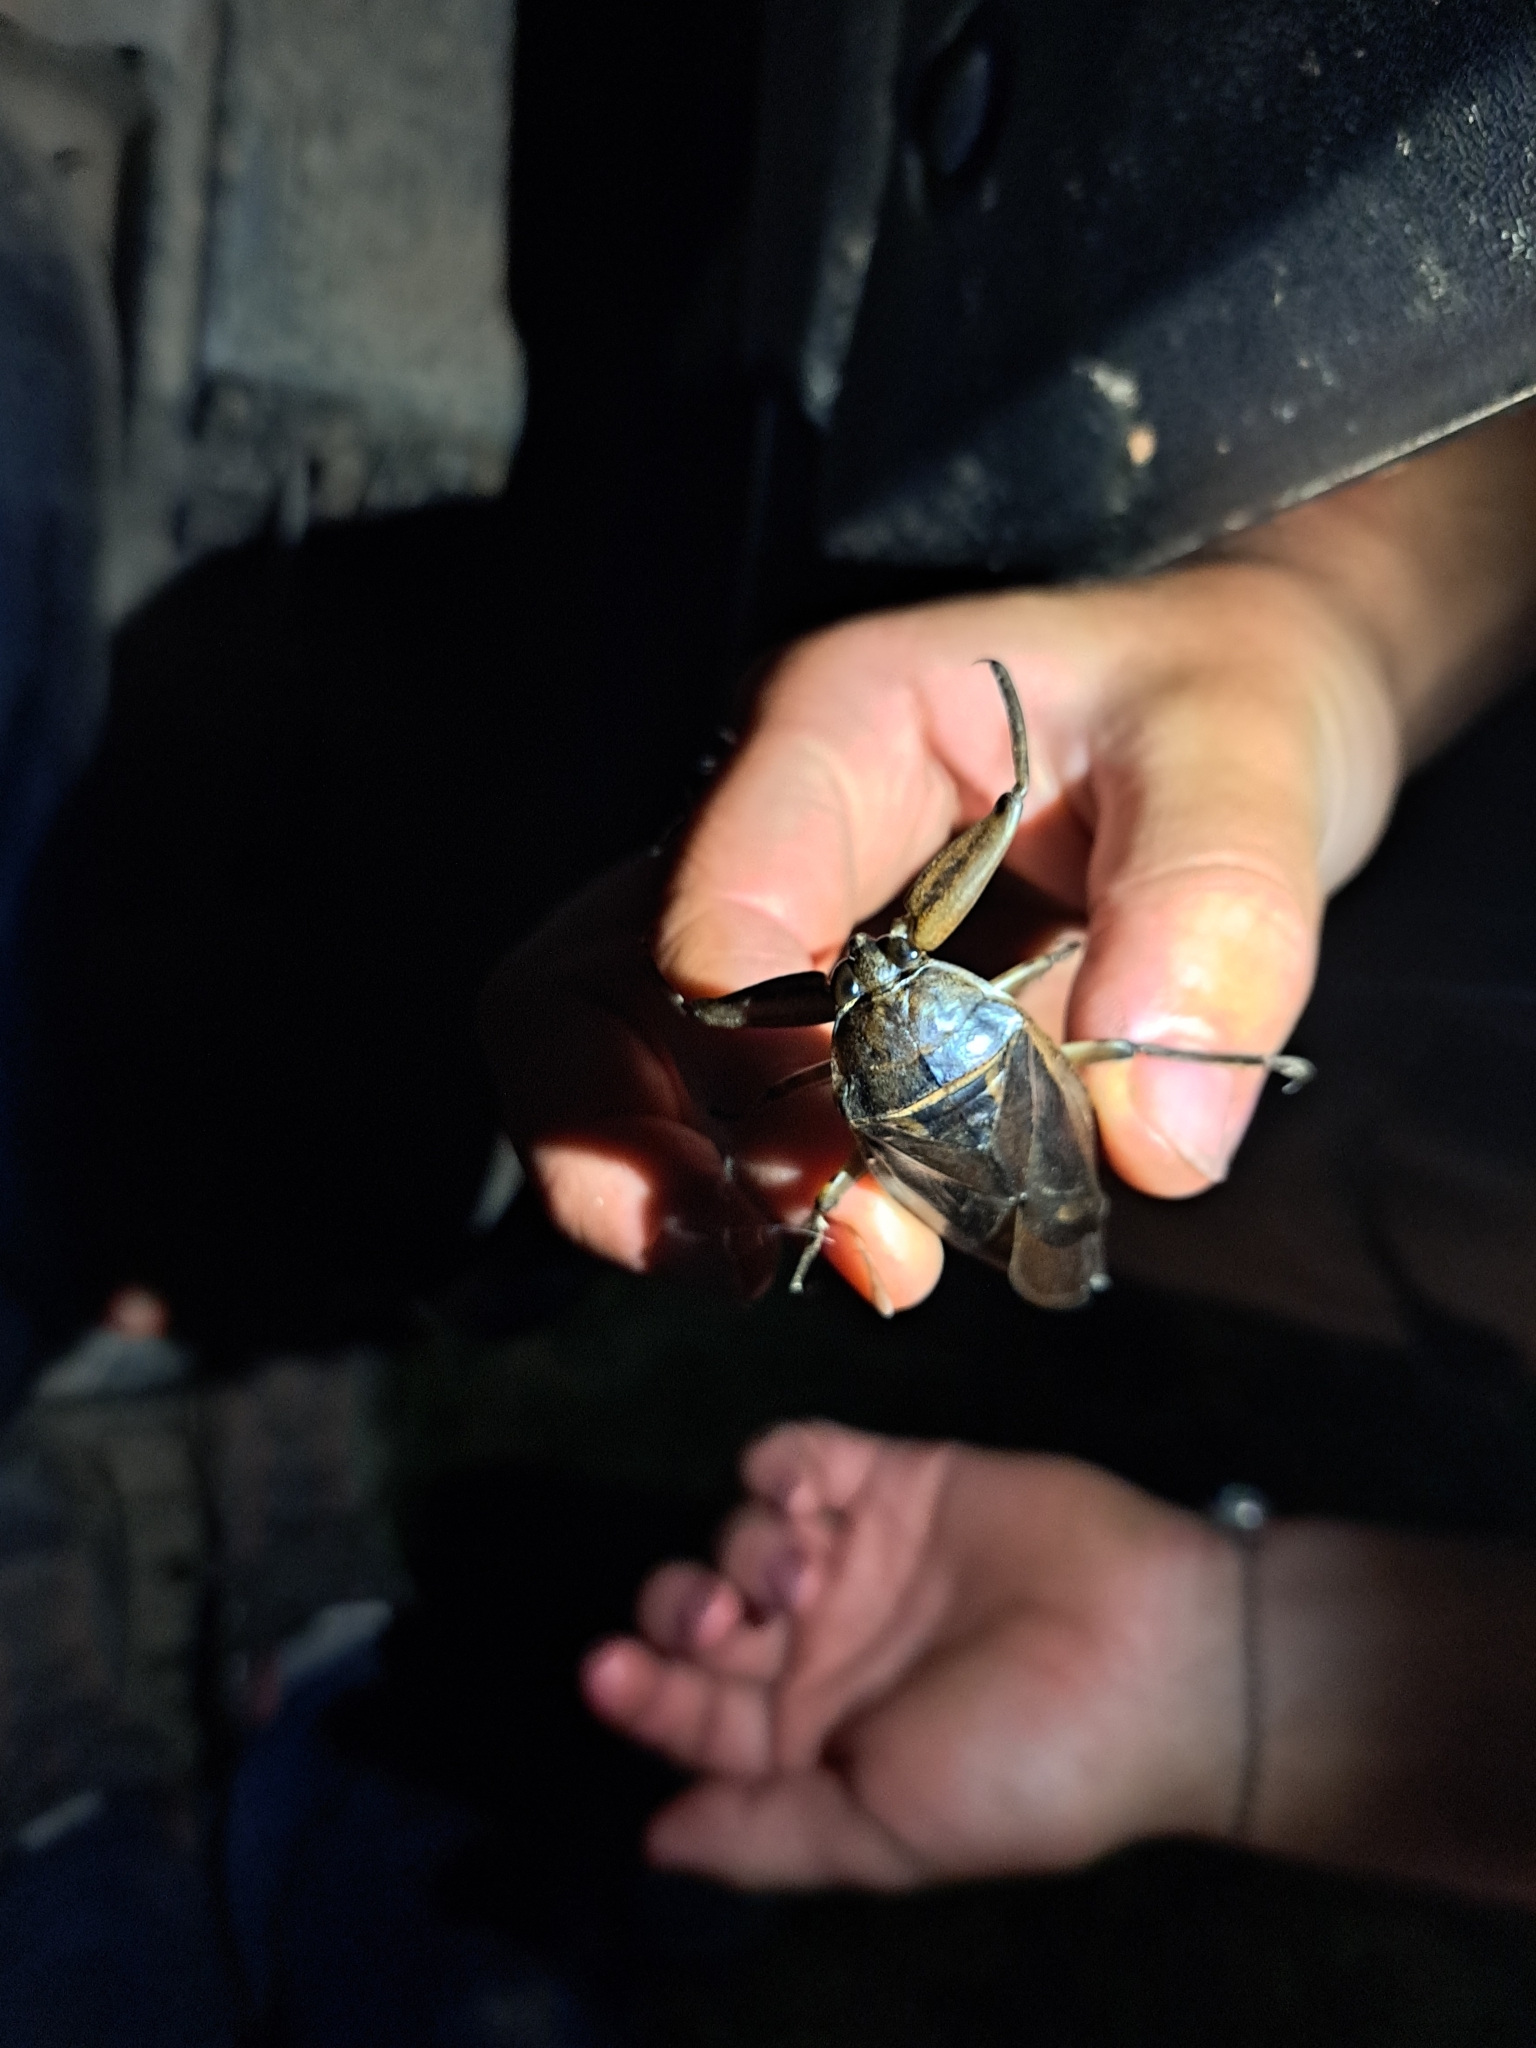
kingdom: Animalia
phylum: Arthropoda
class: Insecta
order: Hemiptera
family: Belostomatidae
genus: Lethocerus
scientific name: Lethocerus americanus
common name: Giant water bug
